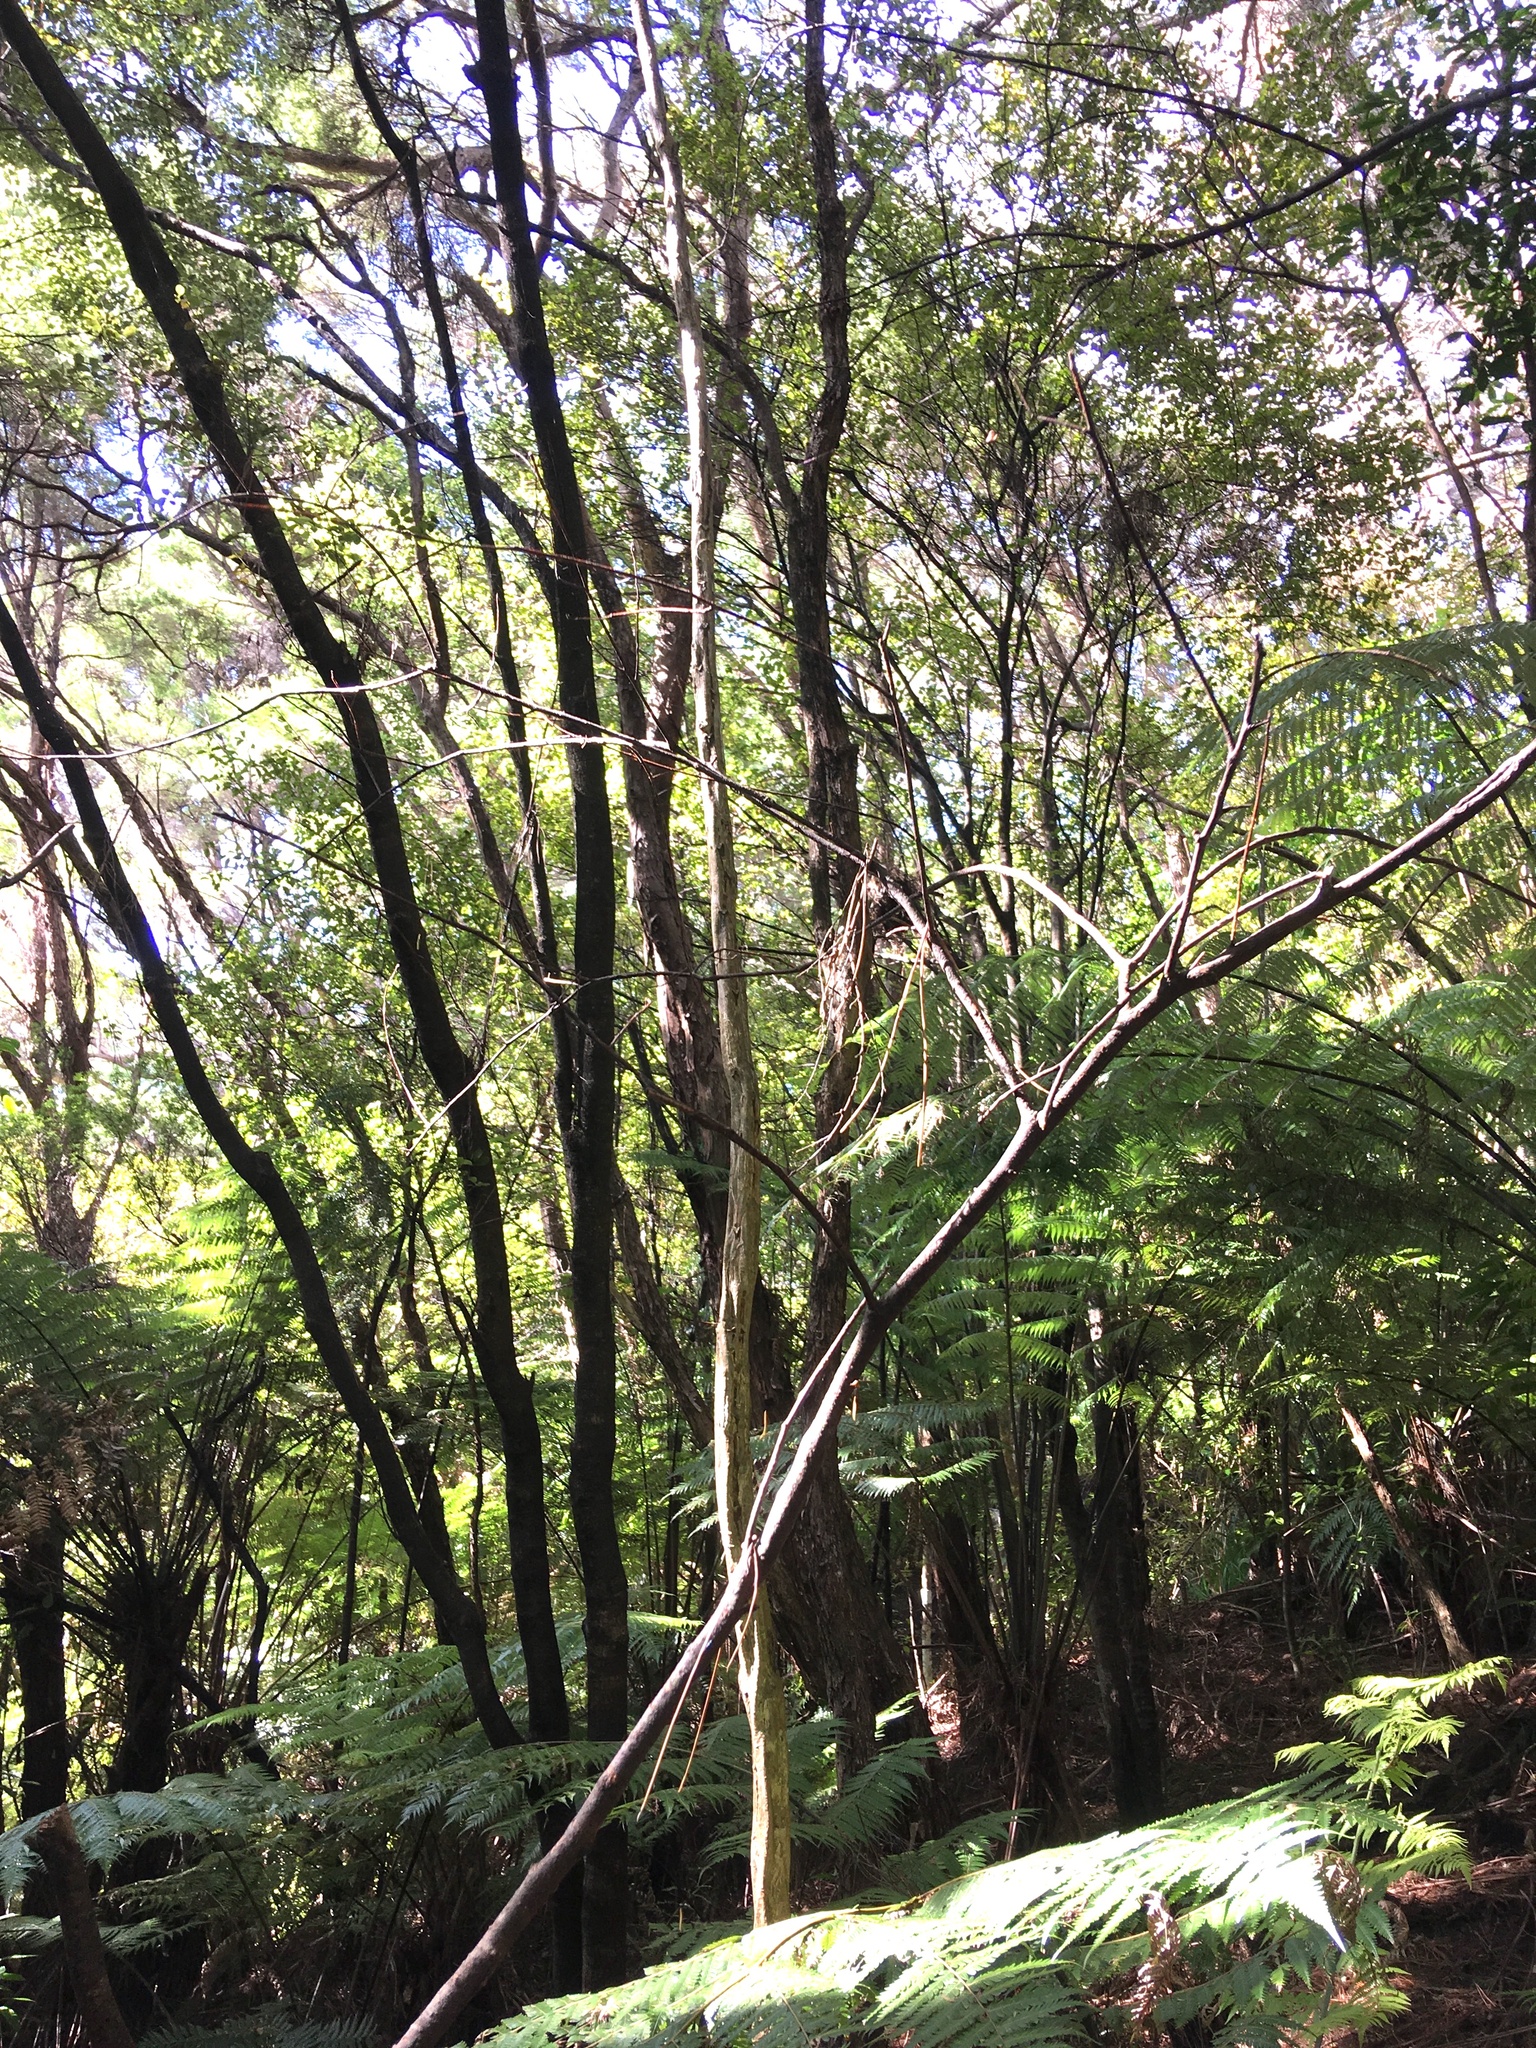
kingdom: Plantae
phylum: Tracheophyta
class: Magnoliopsida
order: Apiales
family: Araliaceae
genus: Pseudopanax
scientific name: Pseudopanax crassifolius
